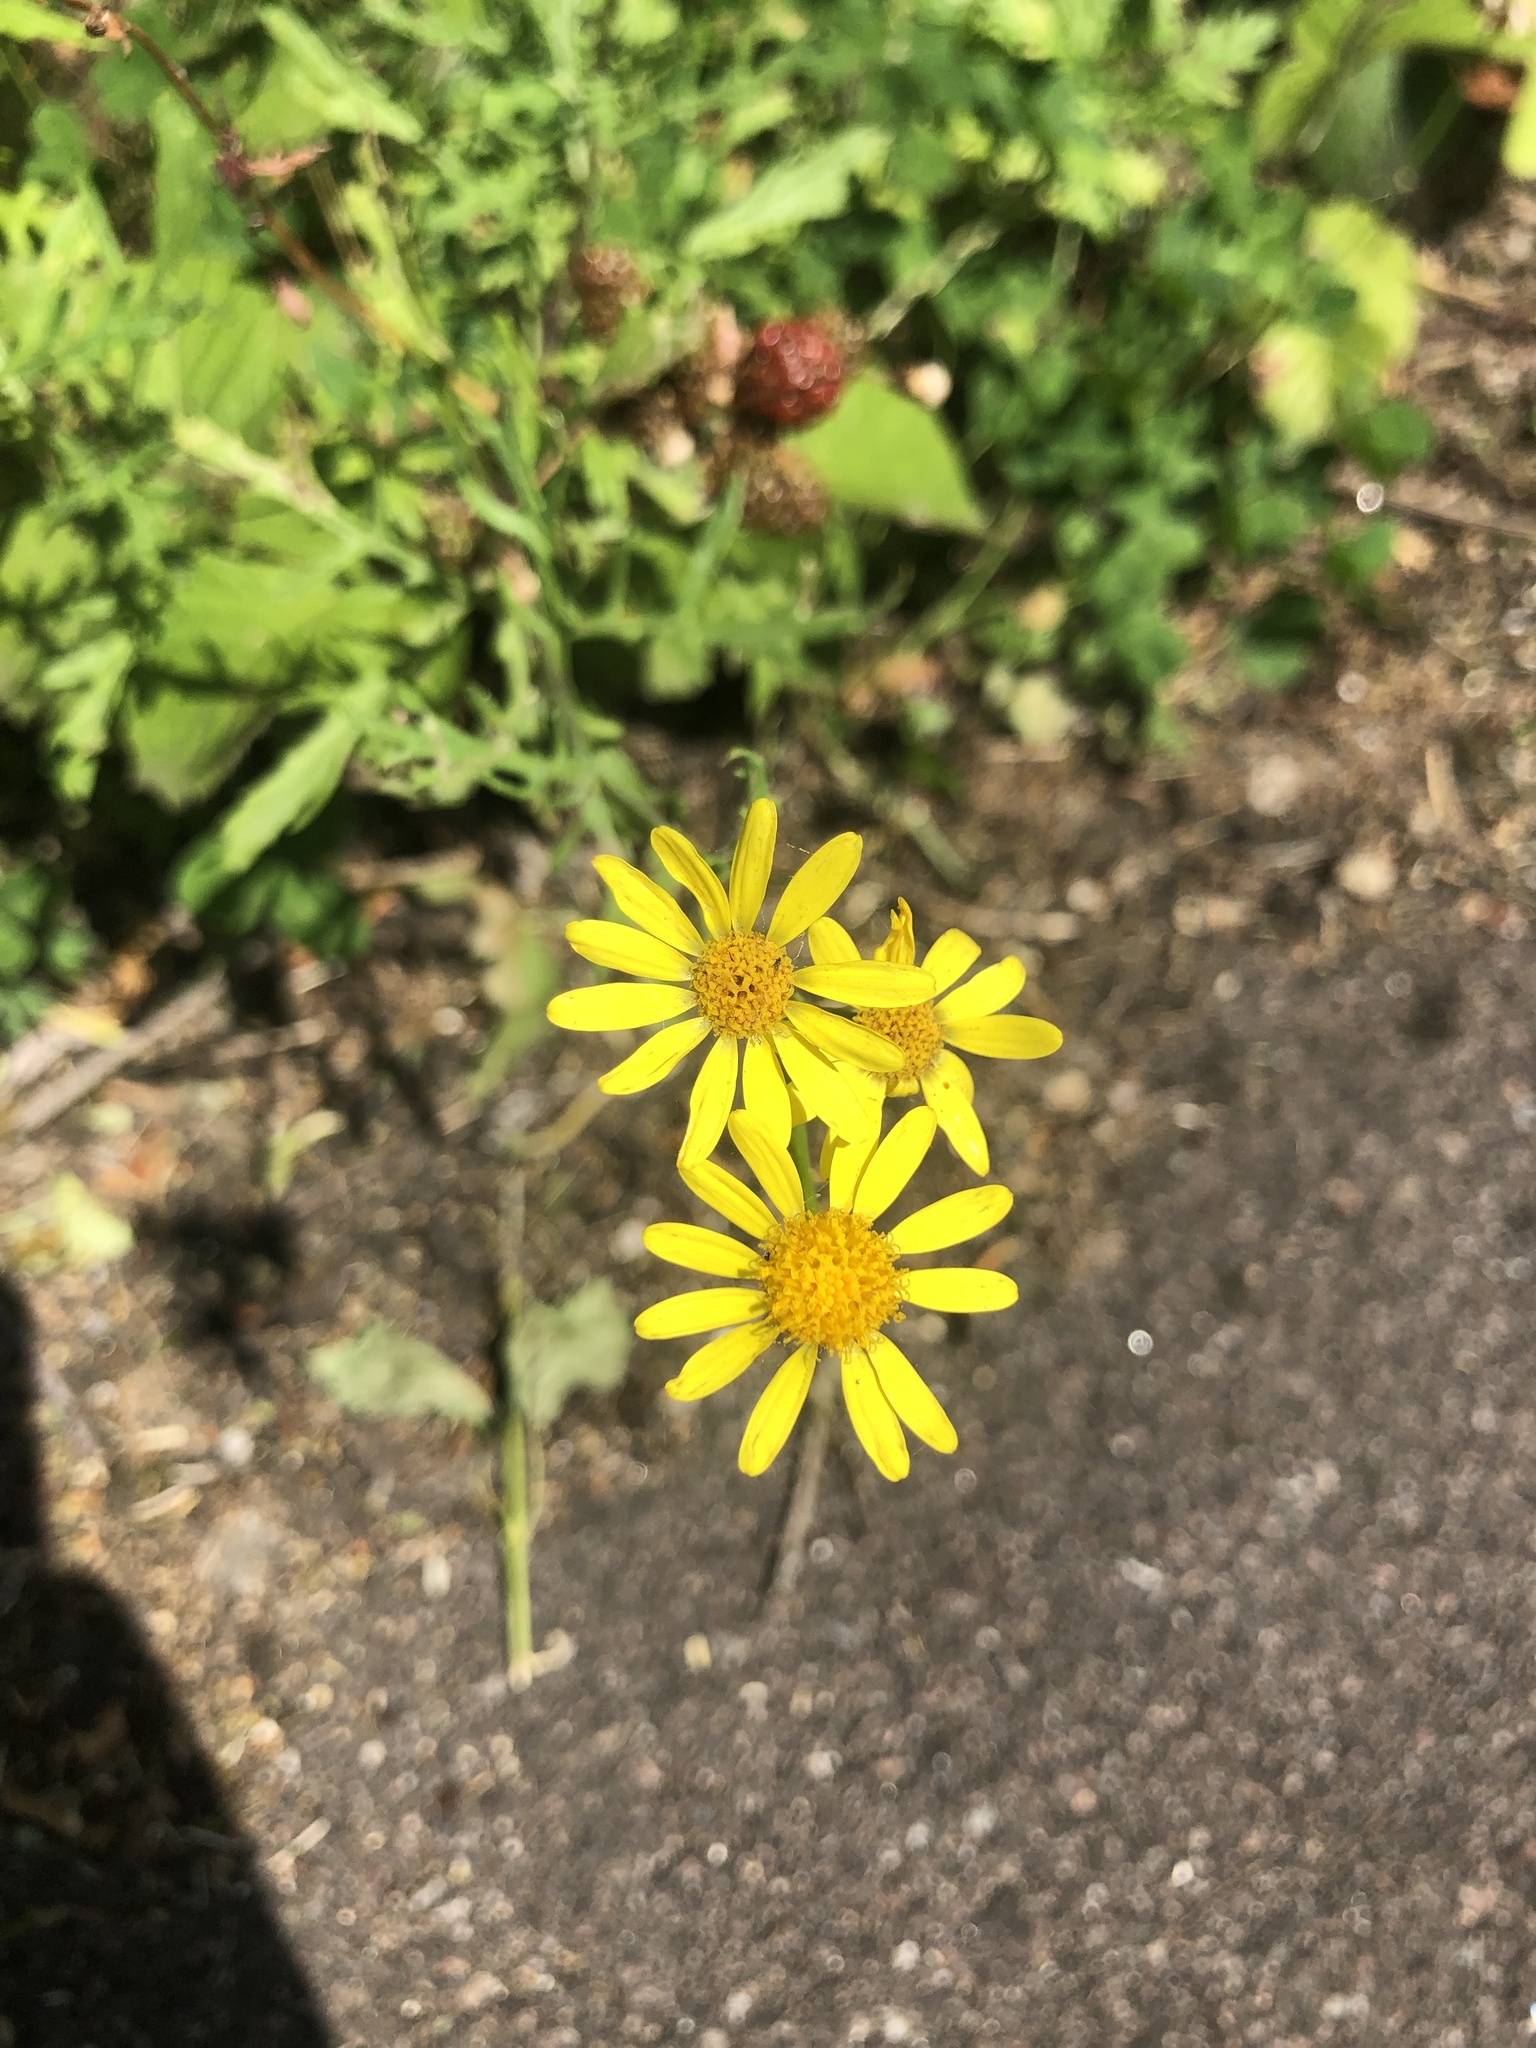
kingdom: Plantae
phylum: Tracheophyta
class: Magnoliopsida
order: Asterales
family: Asteraceae
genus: Senecio
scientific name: Senecio squalidus
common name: Oxford ragwort
